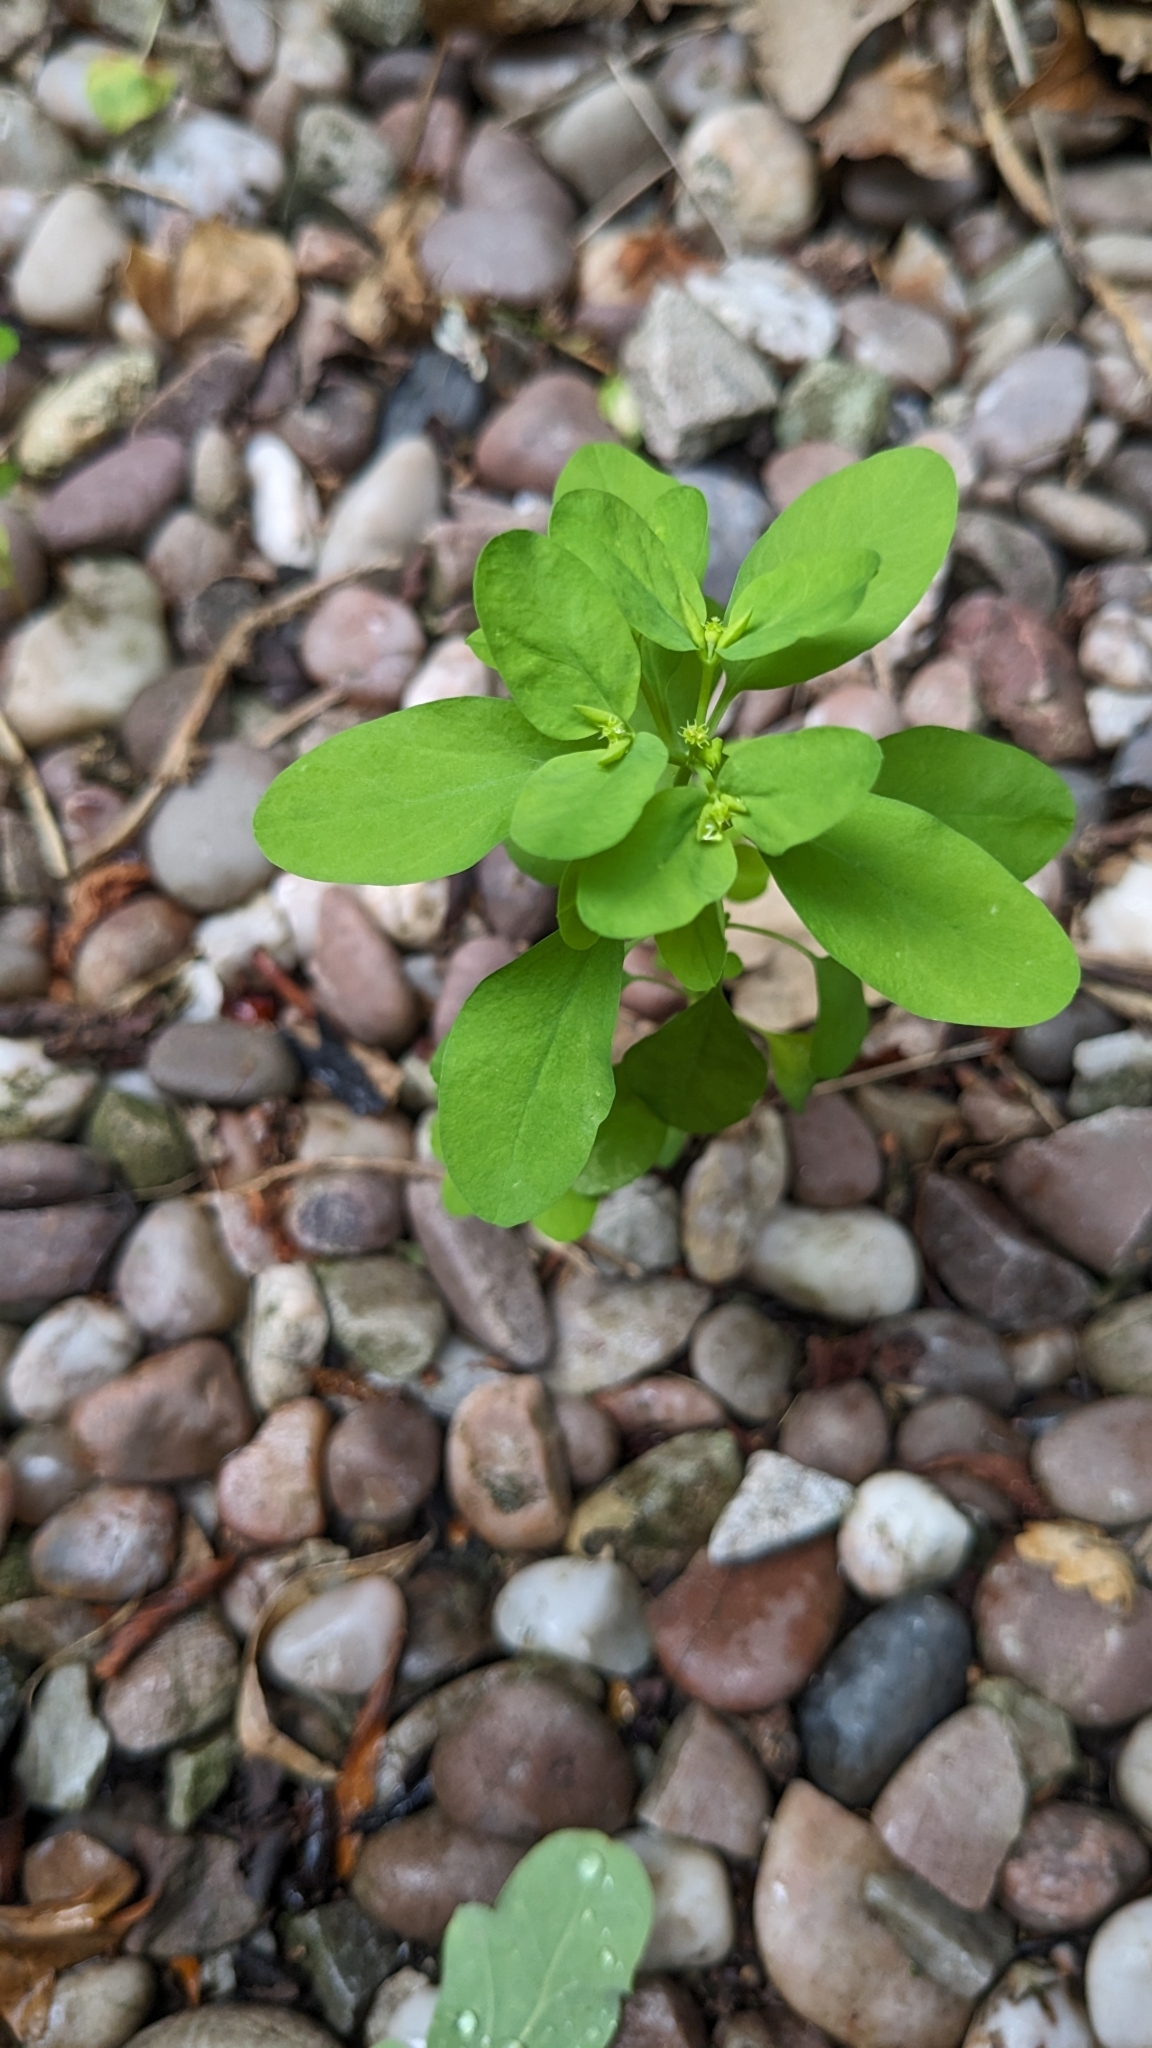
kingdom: Plantae
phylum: Tracheophyta
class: Magnoliopsida
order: Malpighiales
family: Euphorbiaceae
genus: Euphorbia
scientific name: Euphorbia peplus
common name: Petty spurge
